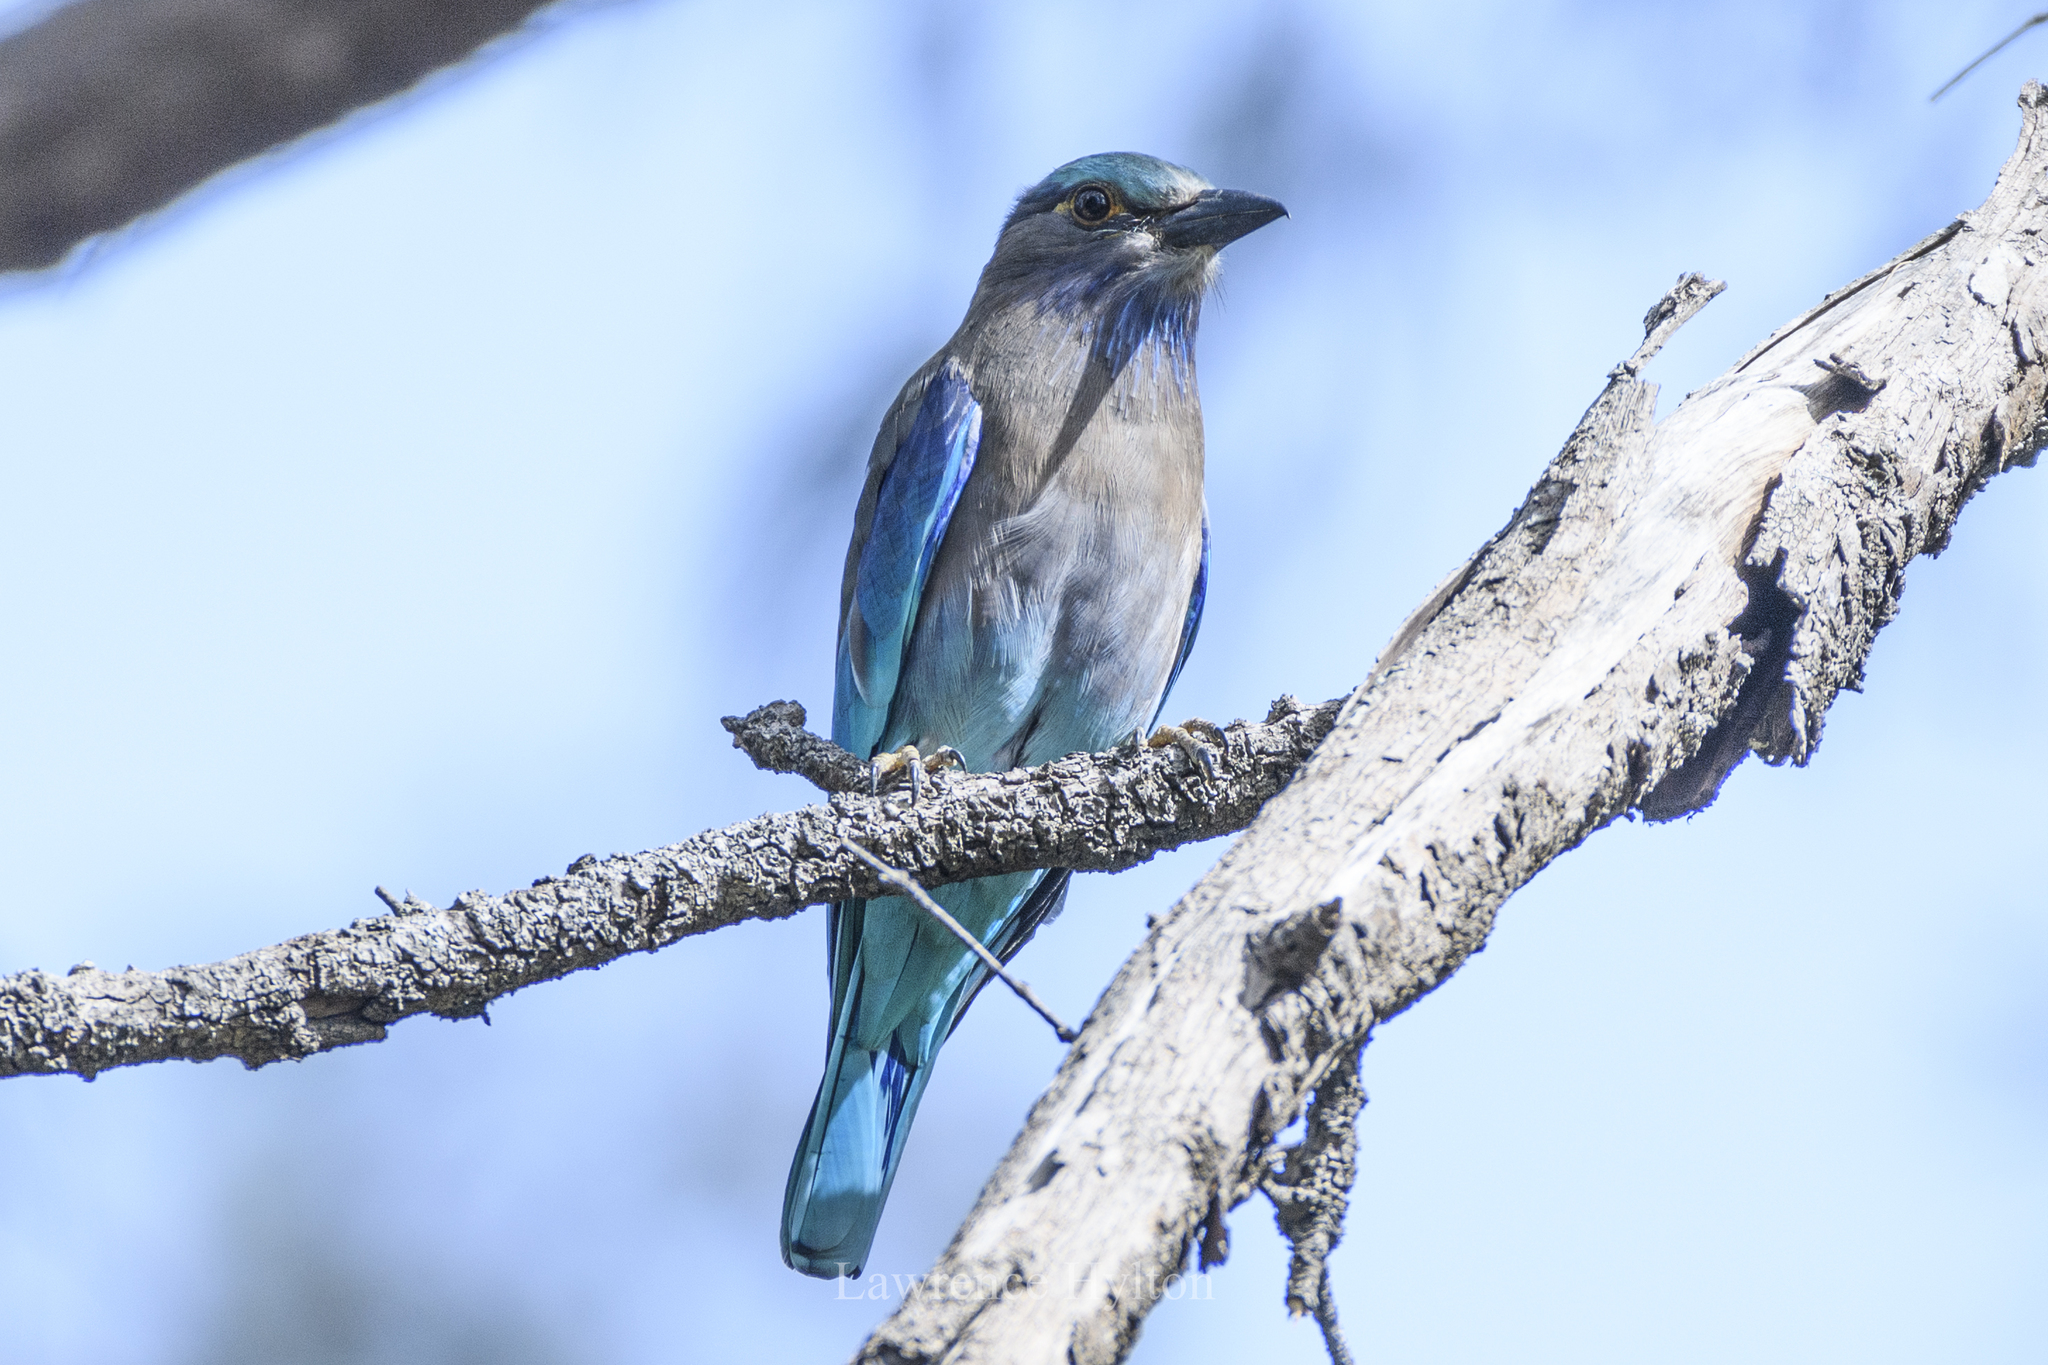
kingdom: Animalia
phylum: Chordata
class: Aves
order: Coraciiformes
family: Coraciidae
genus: Coracias
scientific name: Coracias affinis
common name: Indochinese roller
